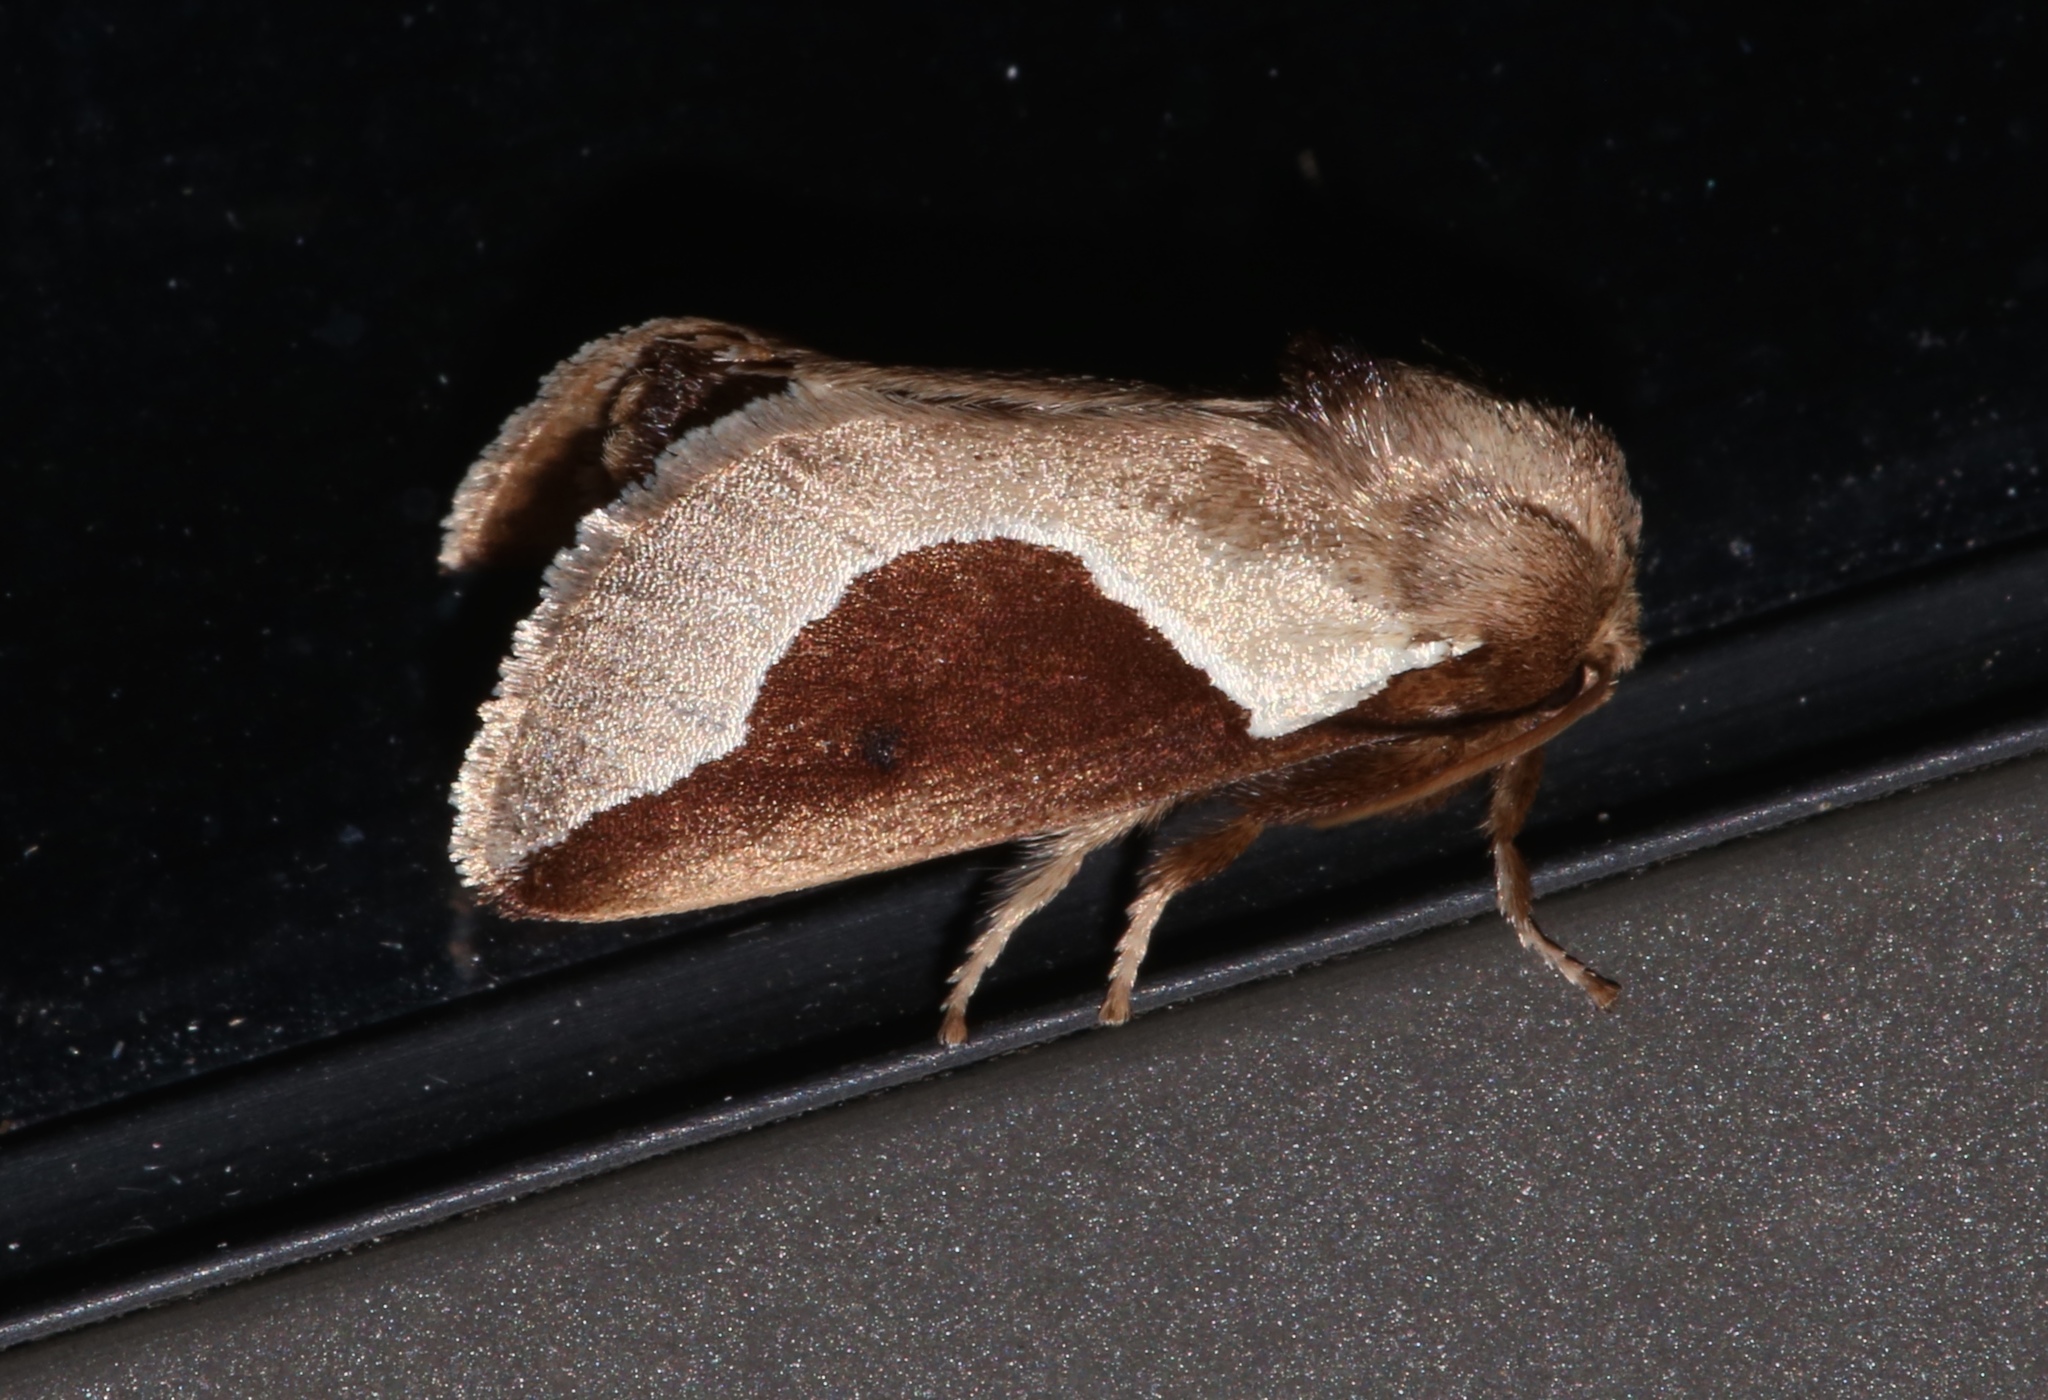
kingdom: Animalia
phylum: Arthropoda
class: Insecta
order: Lepidoptera
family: Limacodidae
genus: Prolimacodes
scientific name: Prolimacodes badia
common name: Skiff moth
